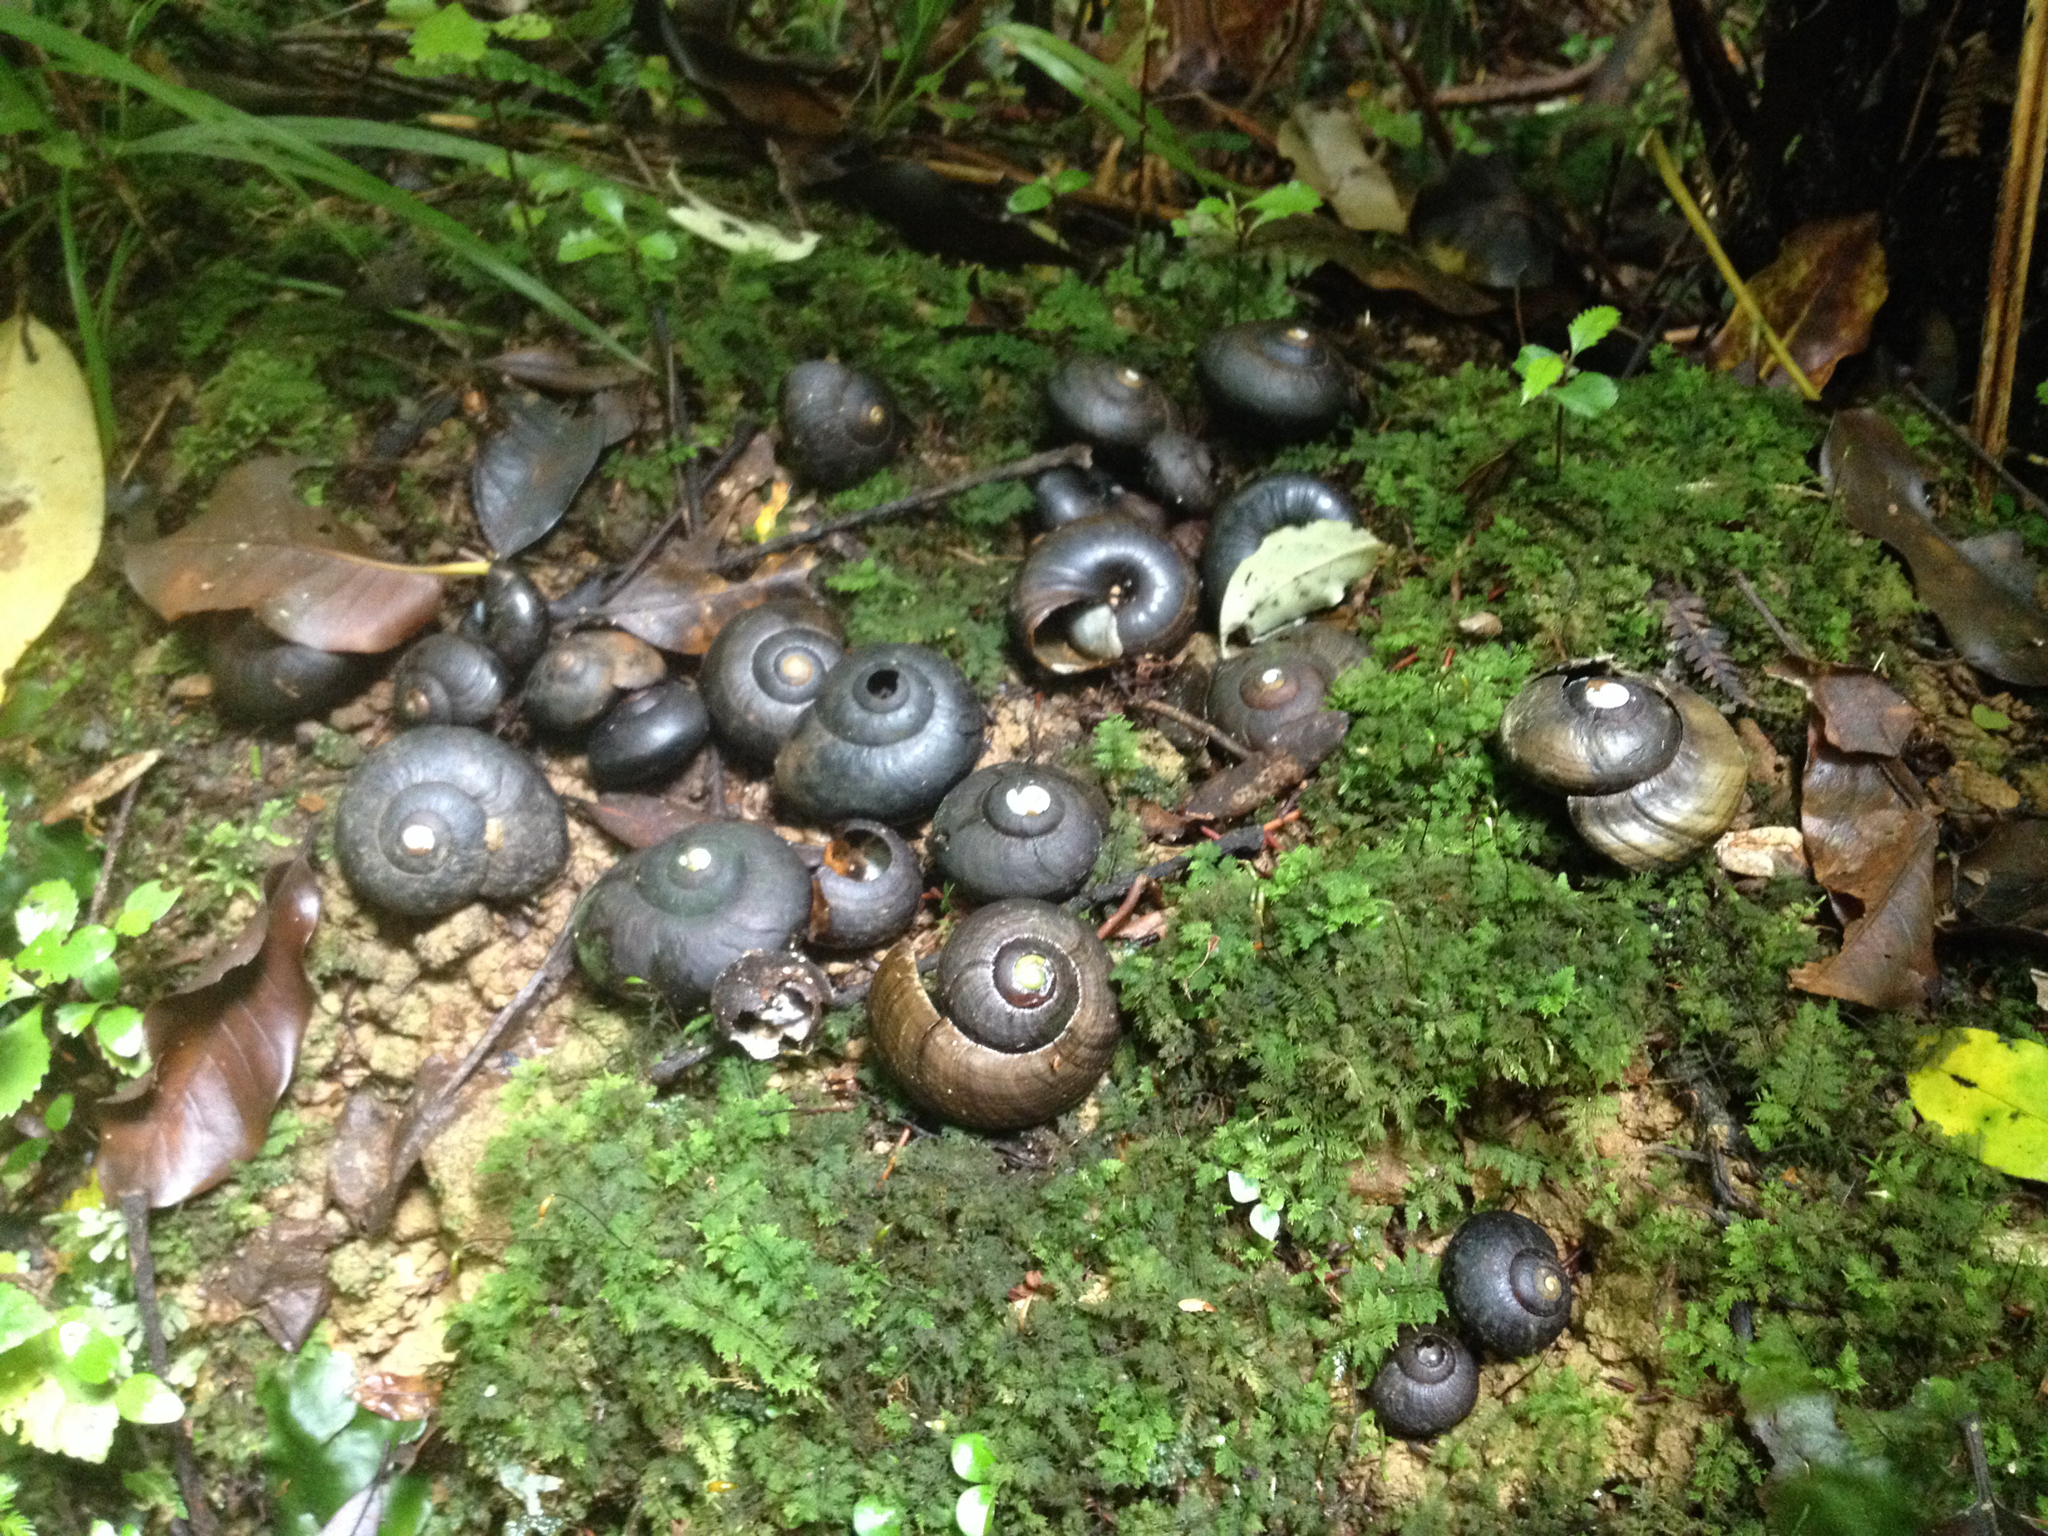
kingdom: Animalia
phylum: Mollusca
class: Gastropoda
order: Stylommatophora
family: Rhytididae
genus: Powelliphanta
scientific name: Powelliphanta traversi
